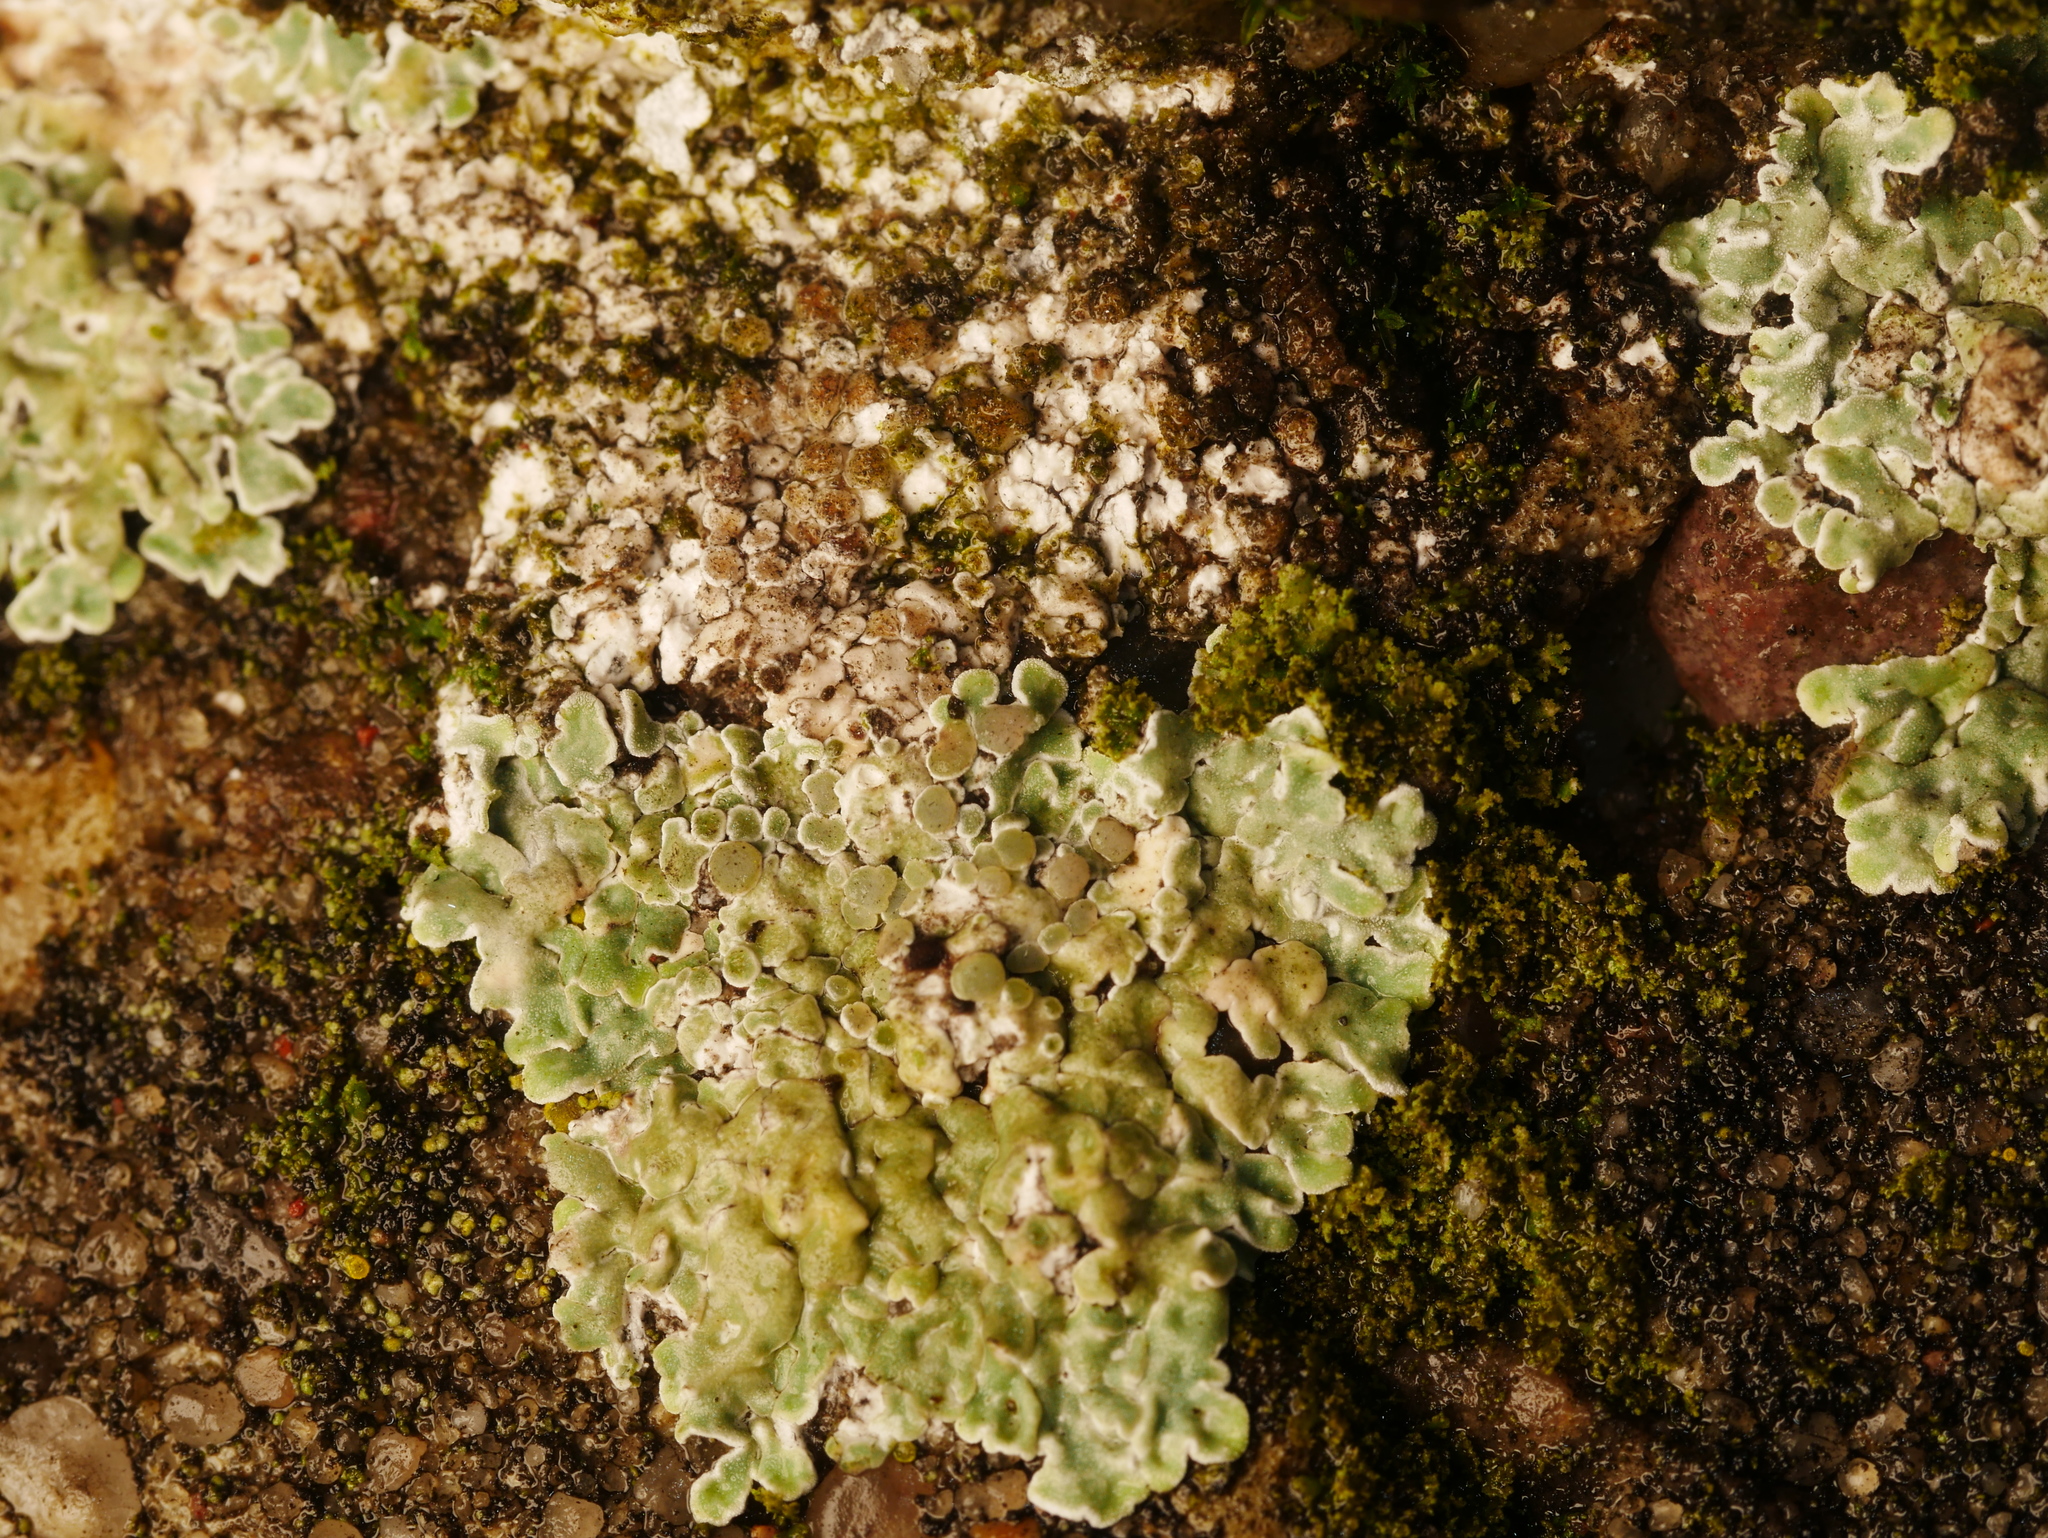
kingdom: Fungi
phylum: Ascomycota
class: Lecanoromycetes
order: Lecanorales
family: Lecanoraceae
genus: Protoparmeliopsis
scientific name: Protoparmeliopsis muralis
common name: Stonewall rim lichen
